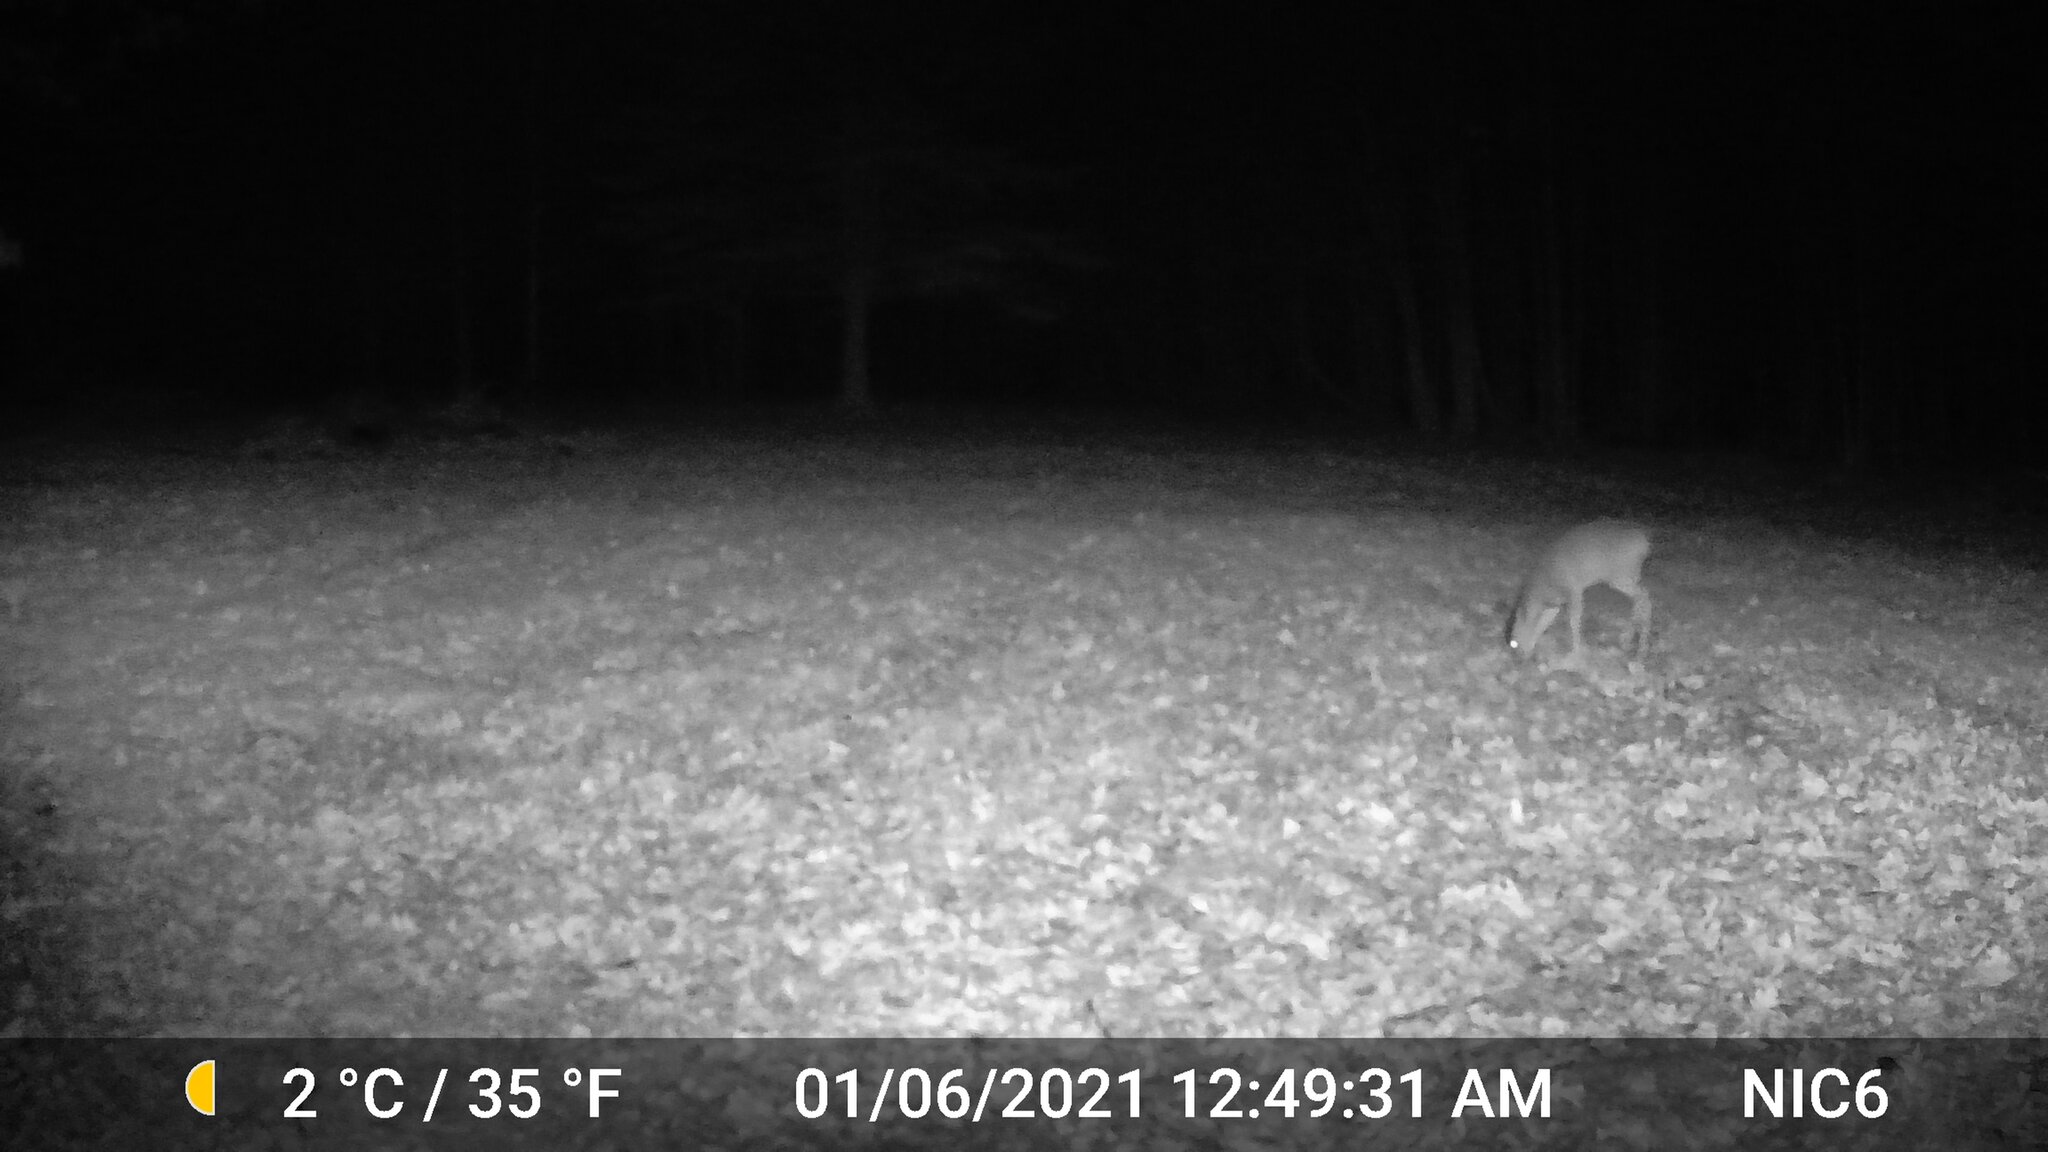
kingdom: Animalia
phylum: Chordata
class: Mammalia
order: Artiodactyla
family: Cervidae
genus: Odocoileus
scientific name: Odocoileus virginianus
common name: White-tailed deer
